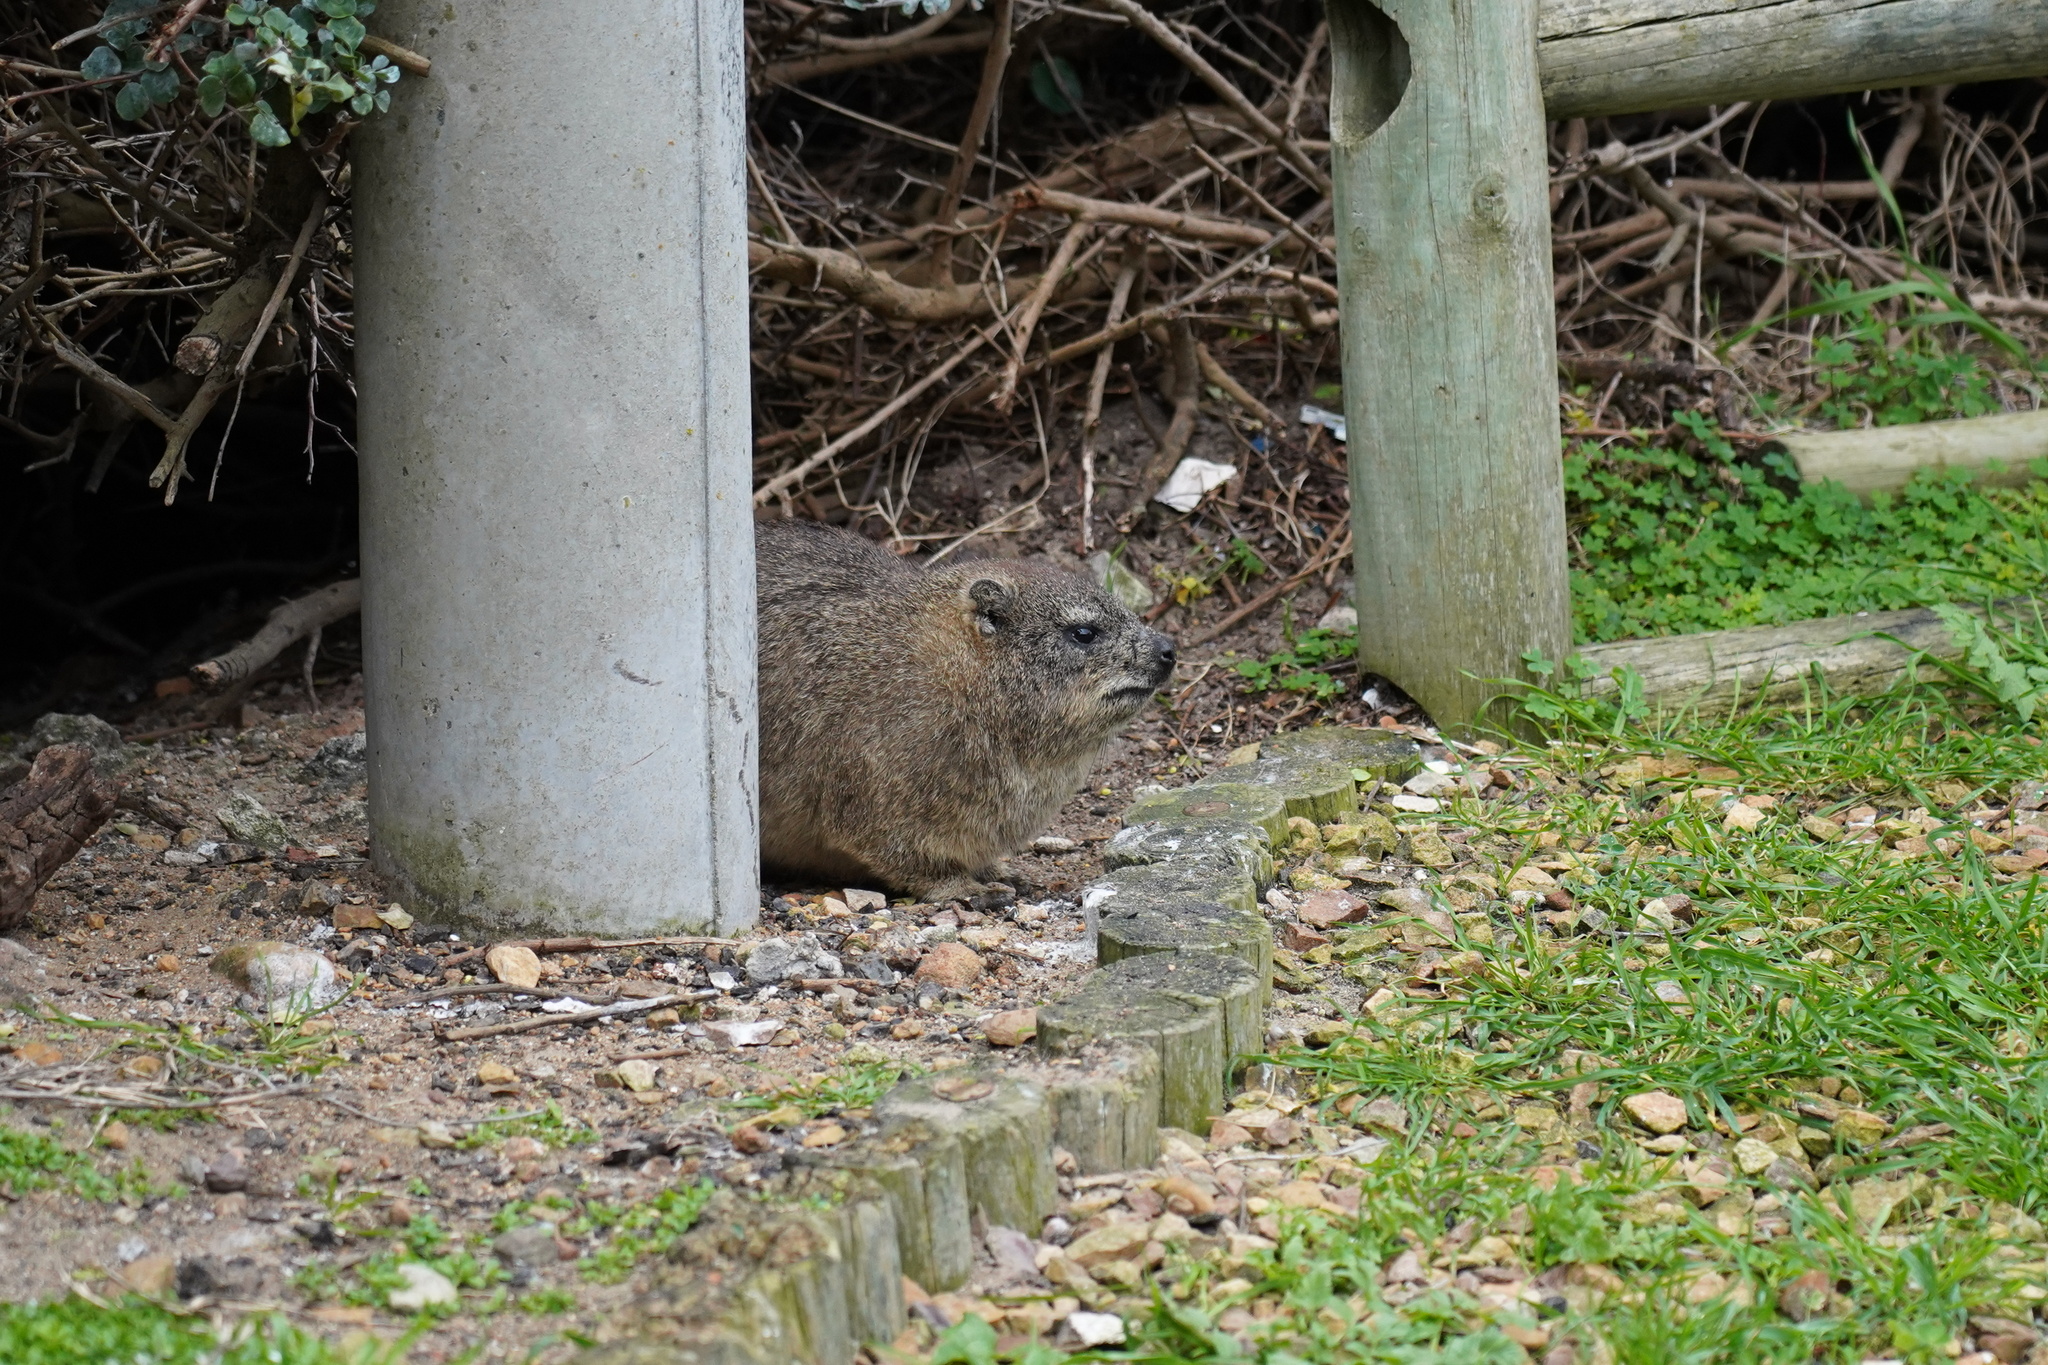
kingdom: Animalia
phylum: Chordata
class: Mammalia
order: Hyracoidea
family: Procaviidae
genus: Procavia
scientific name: Procavia capensis
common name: Rock hyrax
